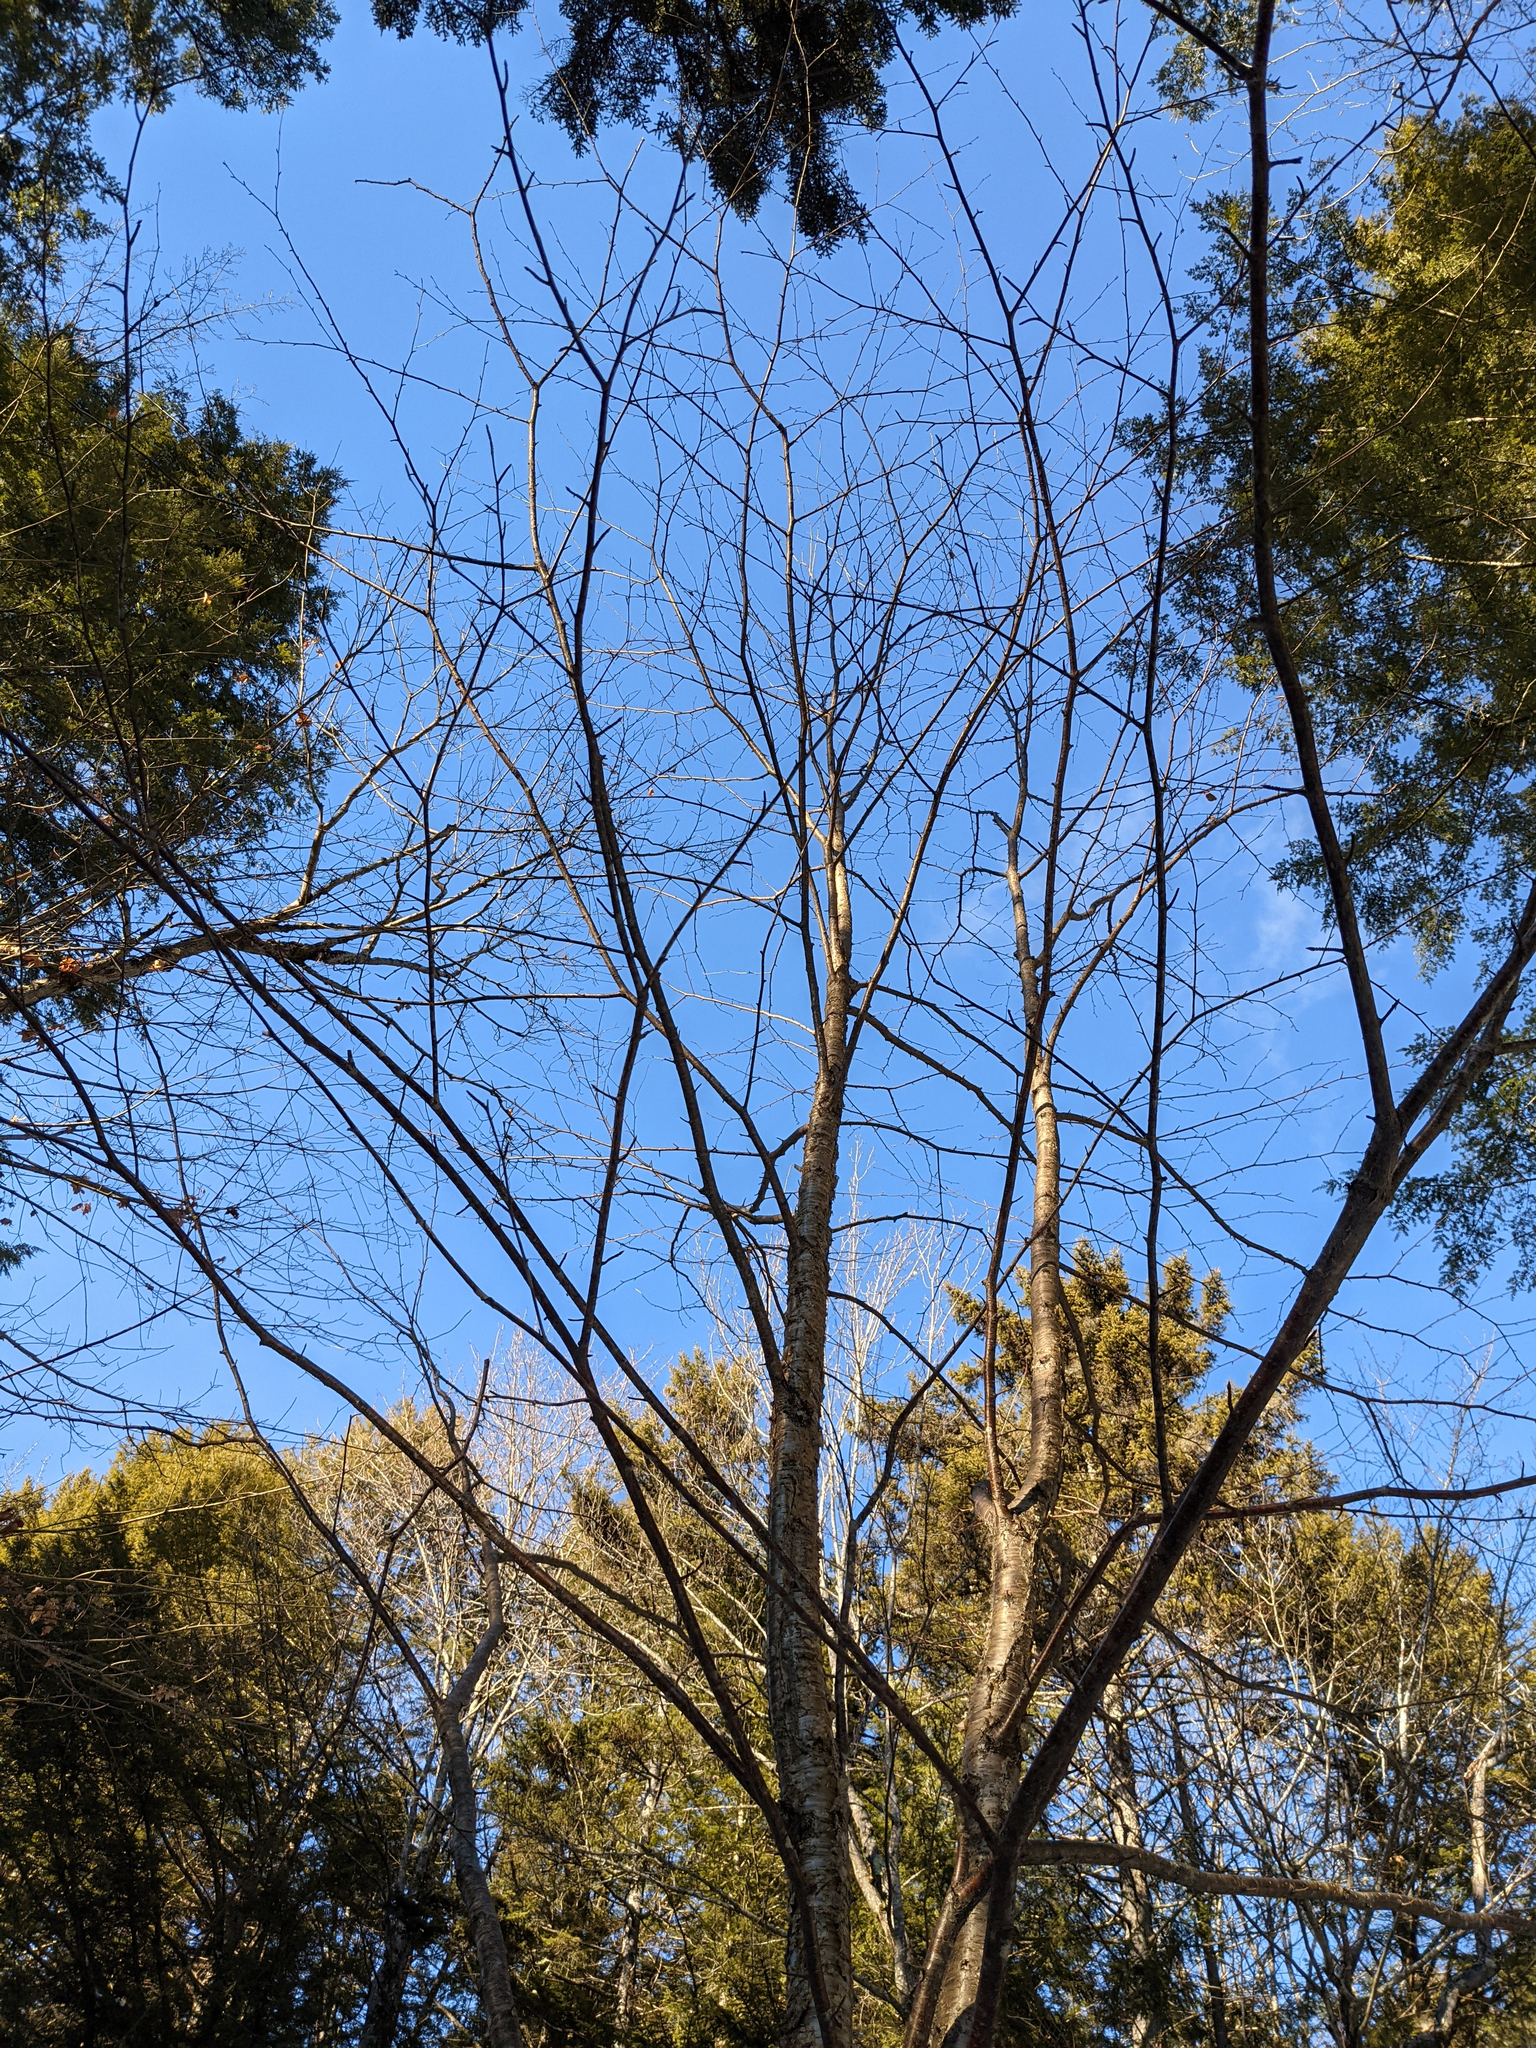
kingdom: Plantae
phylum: Tracheophyta
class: Magnoliopsida
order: Fagales
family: Betulaceae
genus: Betula
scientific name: Betula alleghaniensis
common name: Yellow birch
